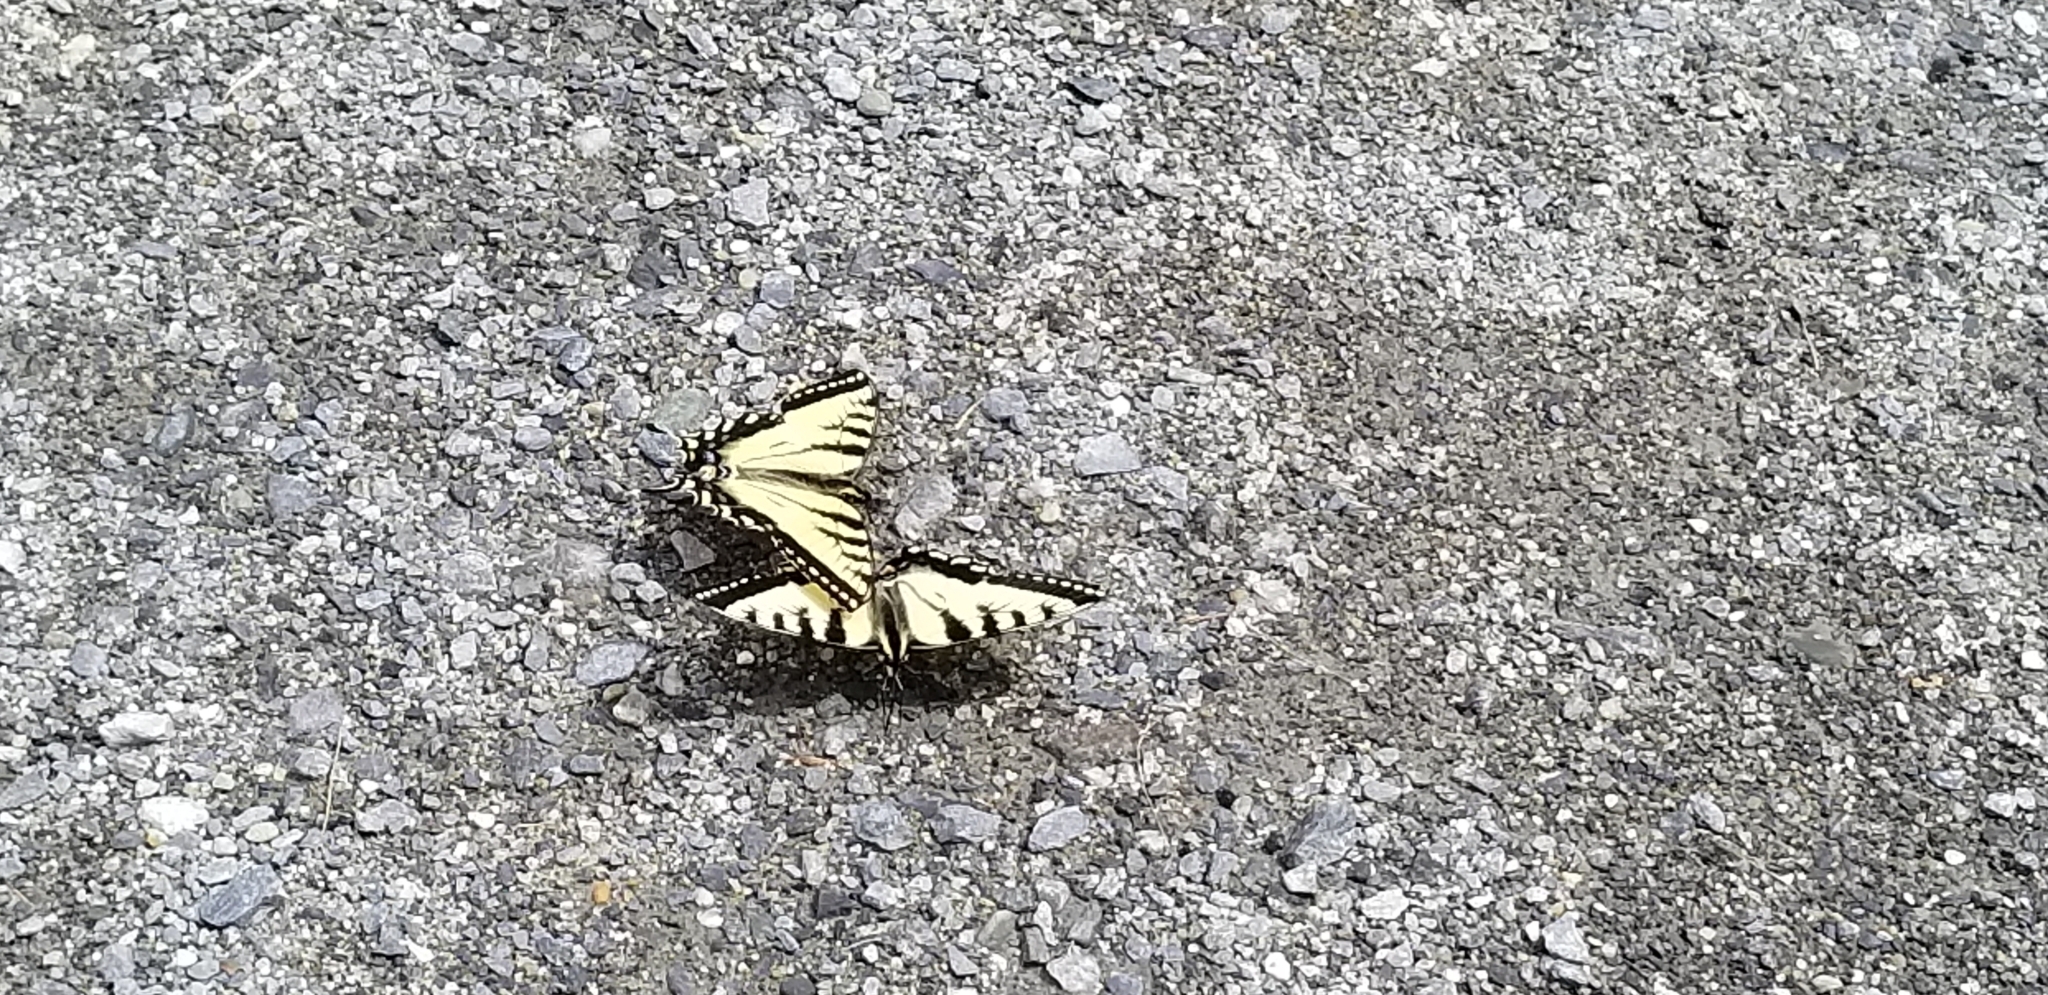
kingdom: Animalia
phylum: Arthropoda
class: Insecta
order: Lepidoptera
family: Papilionidae
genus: Papilio
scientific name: Papilio canadensis
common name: Canadian tiger swallowtail
